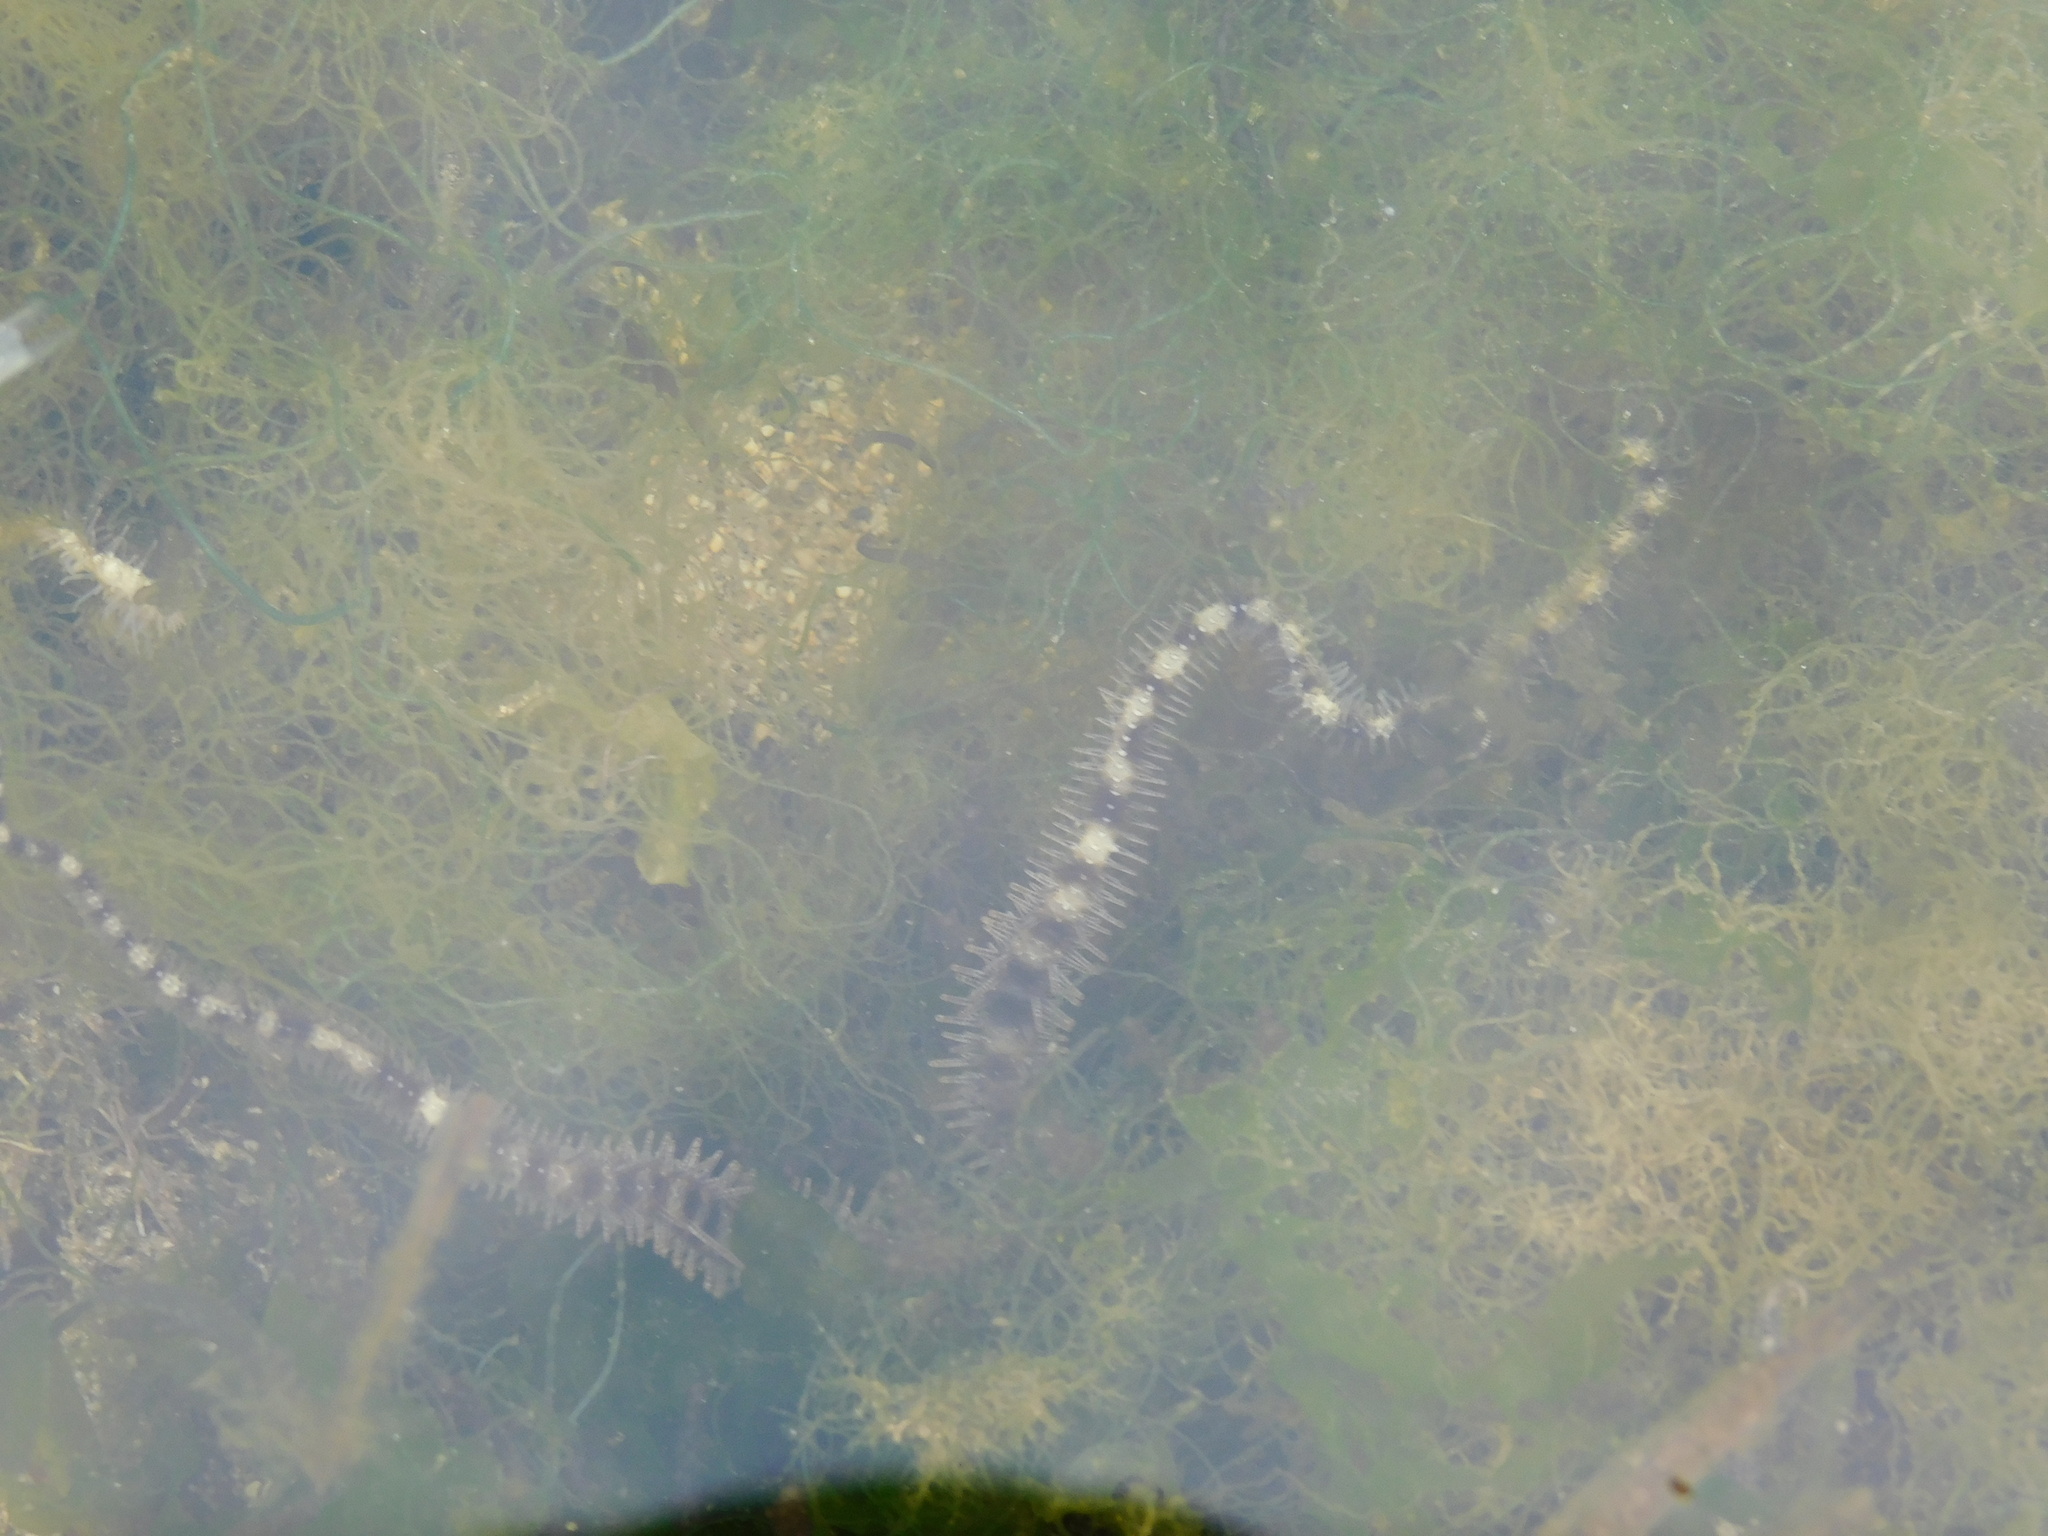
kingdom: Animalia
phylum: Echinodermata
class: Ophiuroidea
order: Ophiacanthida
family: Ophiocomidae
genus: Ophiocoma
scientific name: Ophiocoma scolopendrina
